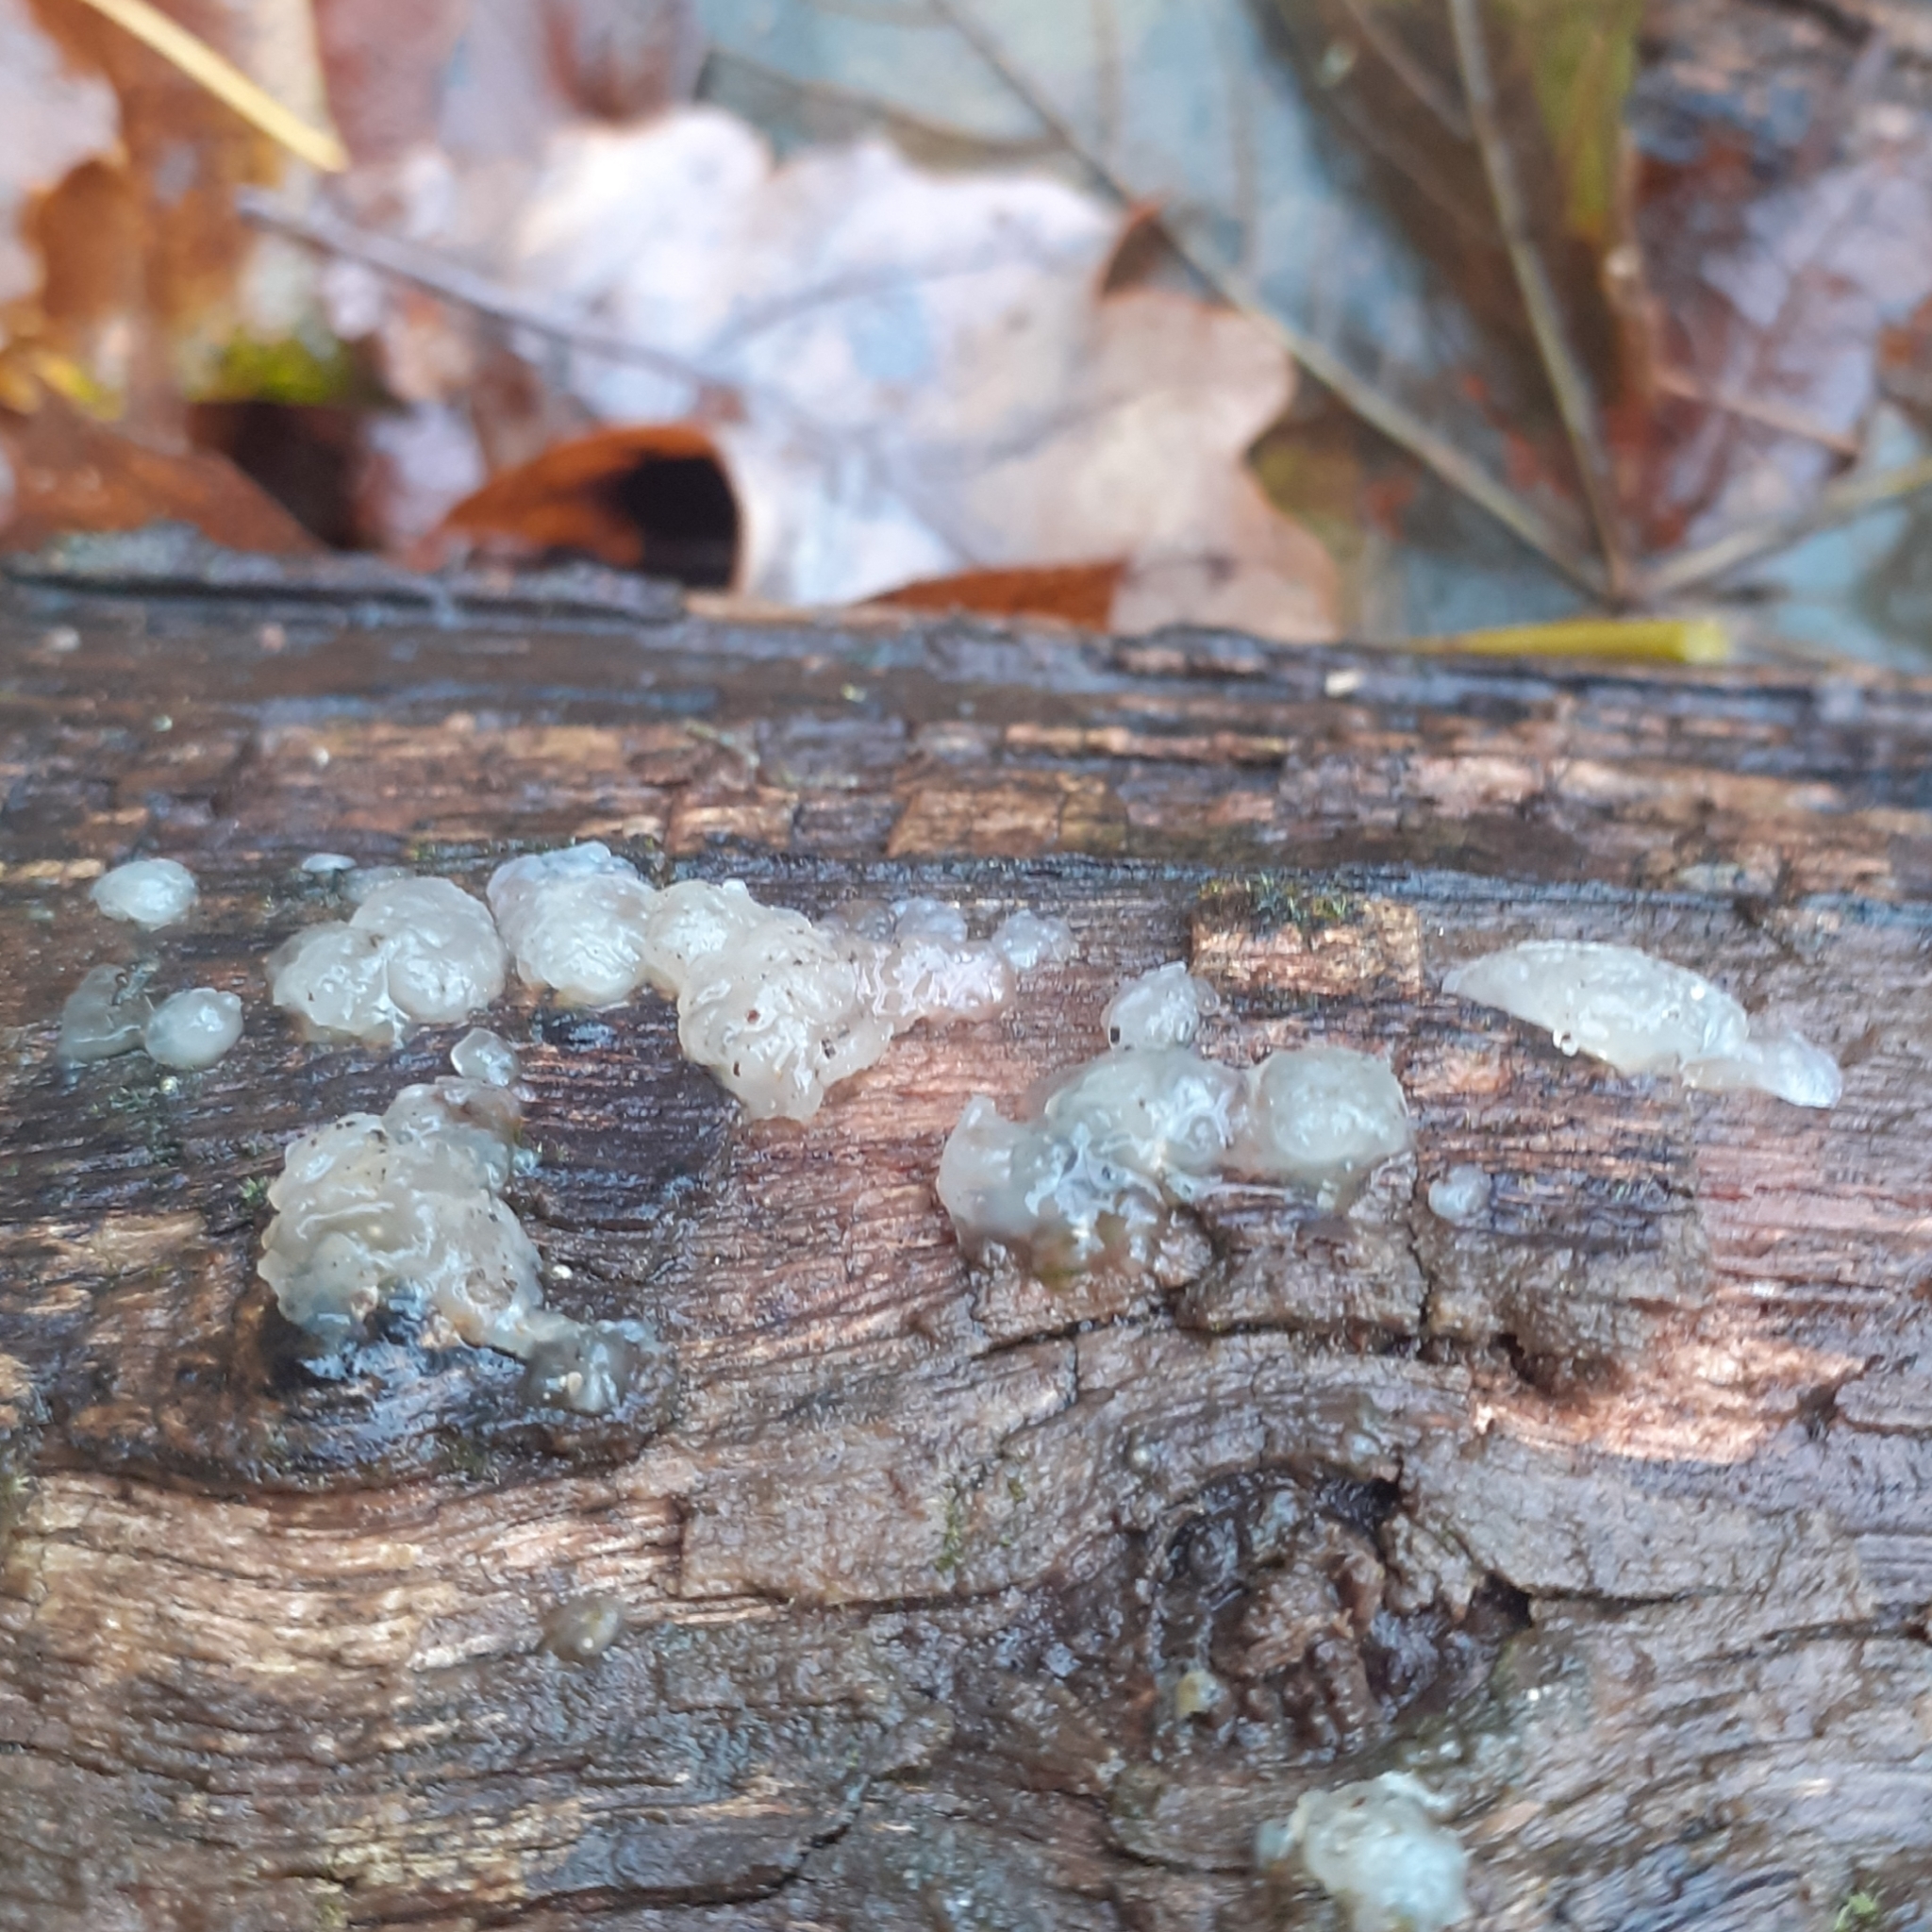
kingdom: Fungi
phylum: Basidiomycota
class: Agaricomycetes
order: Auriculariales
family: Hyaloriaceae
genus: Myxarium
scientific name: Myxarium nucleatum
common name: Crystal brain fungus
